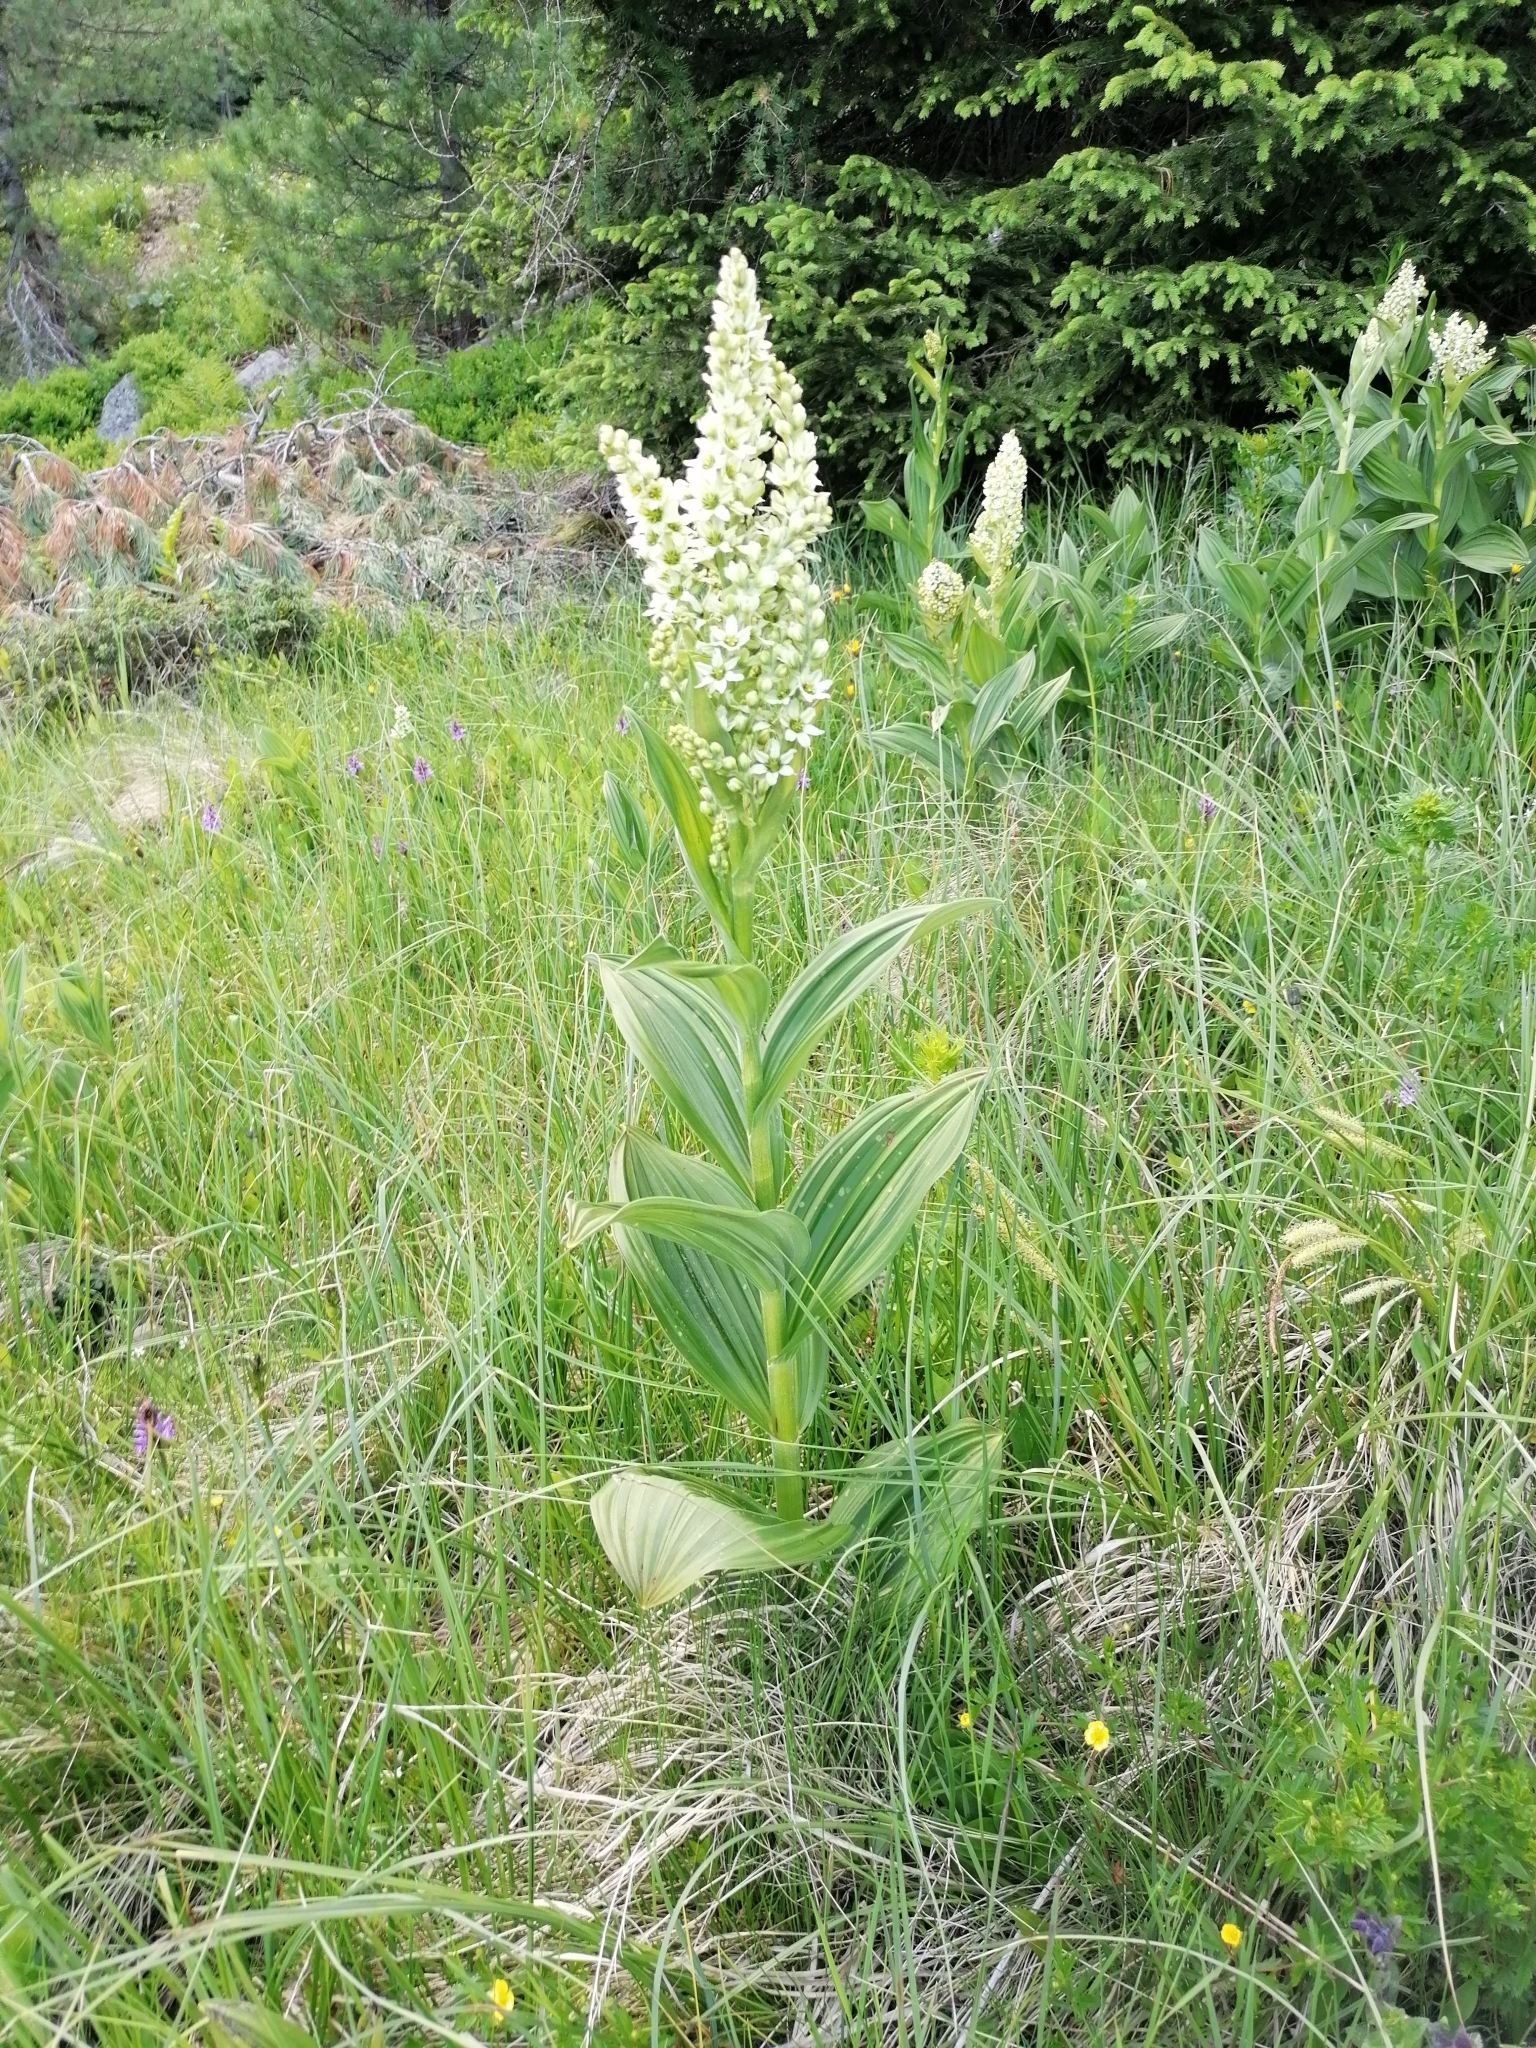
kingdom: Plantae
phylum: Tracheophyta
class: Liliopsida
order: Liliales
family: Melanthiaceae
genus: Veratrum
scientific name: Veratrum album
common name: White veratrum
